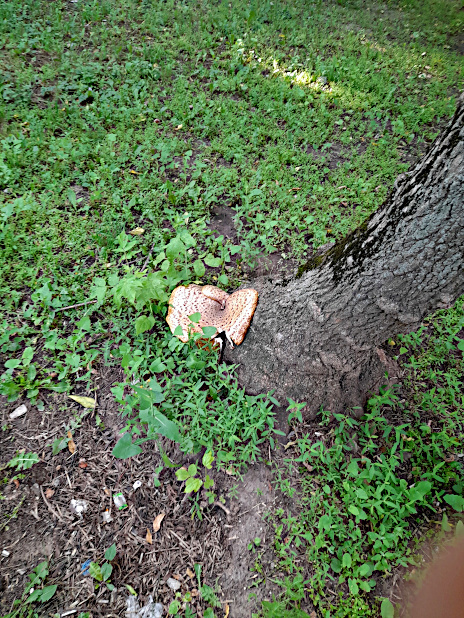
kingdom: Fungi
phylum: Basidiomycota
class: Agaricomycetes
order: Polyporales
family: Polyporaceae
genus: Cerioporus
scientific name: Cerioporus squamosus
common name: Dryad's saddle
